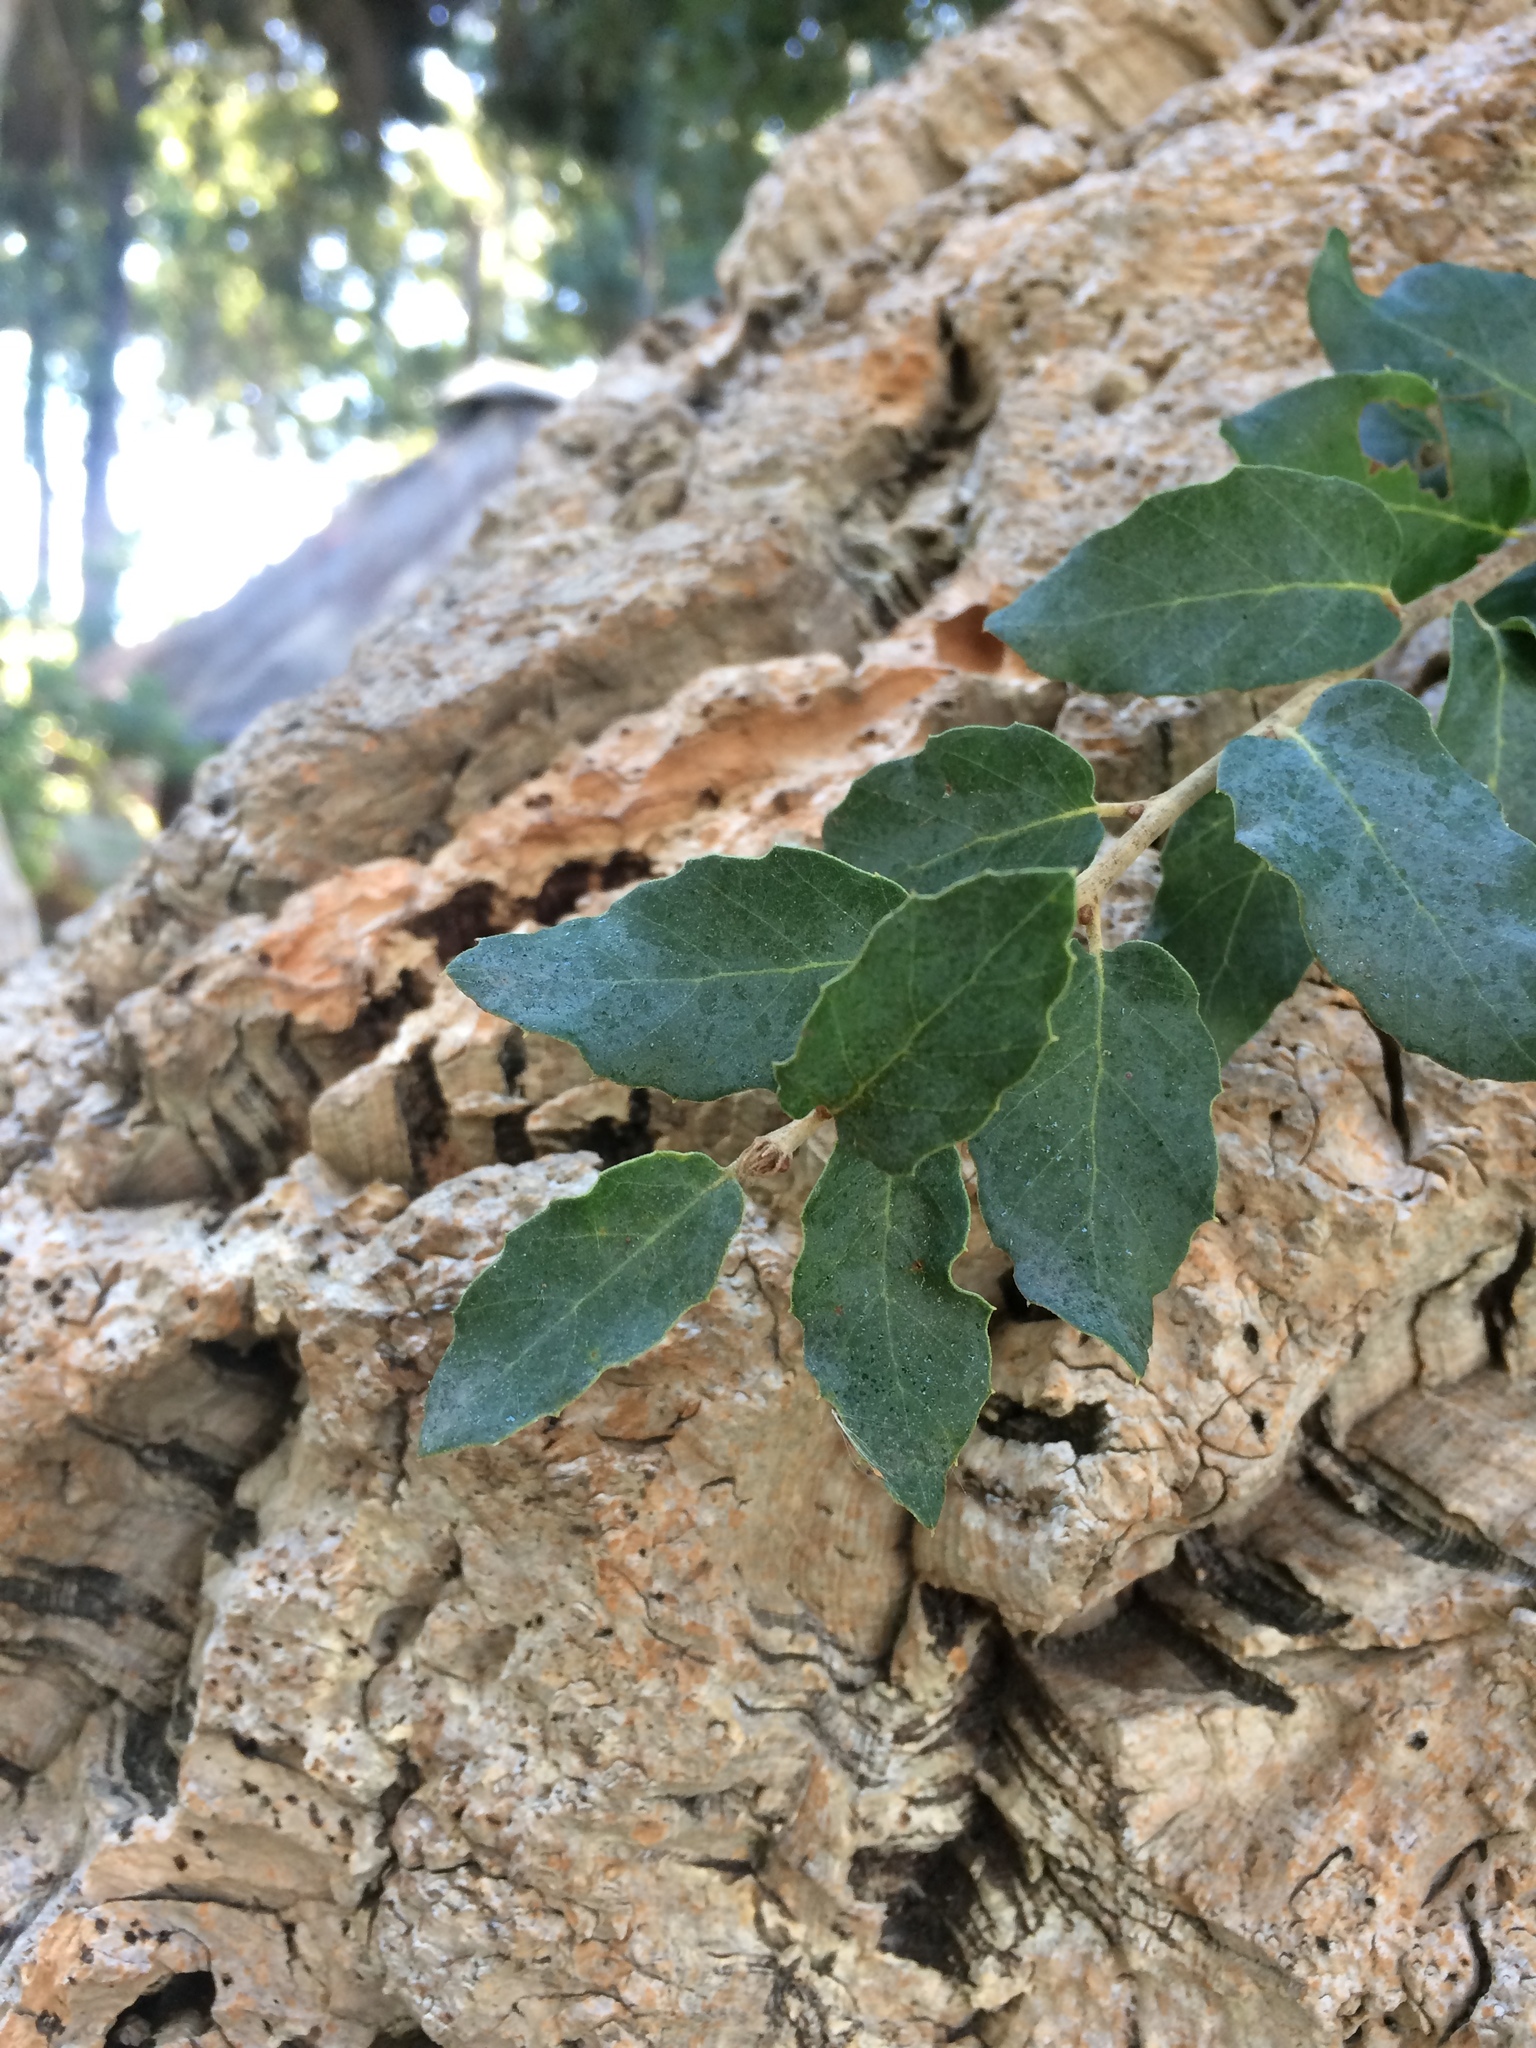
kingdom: Plantae
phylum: Tracheophyta
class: Magnoliopsida
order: Fagales
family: Fagaceae
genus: Quercus
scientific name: Quercus suber
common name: Cork oak
